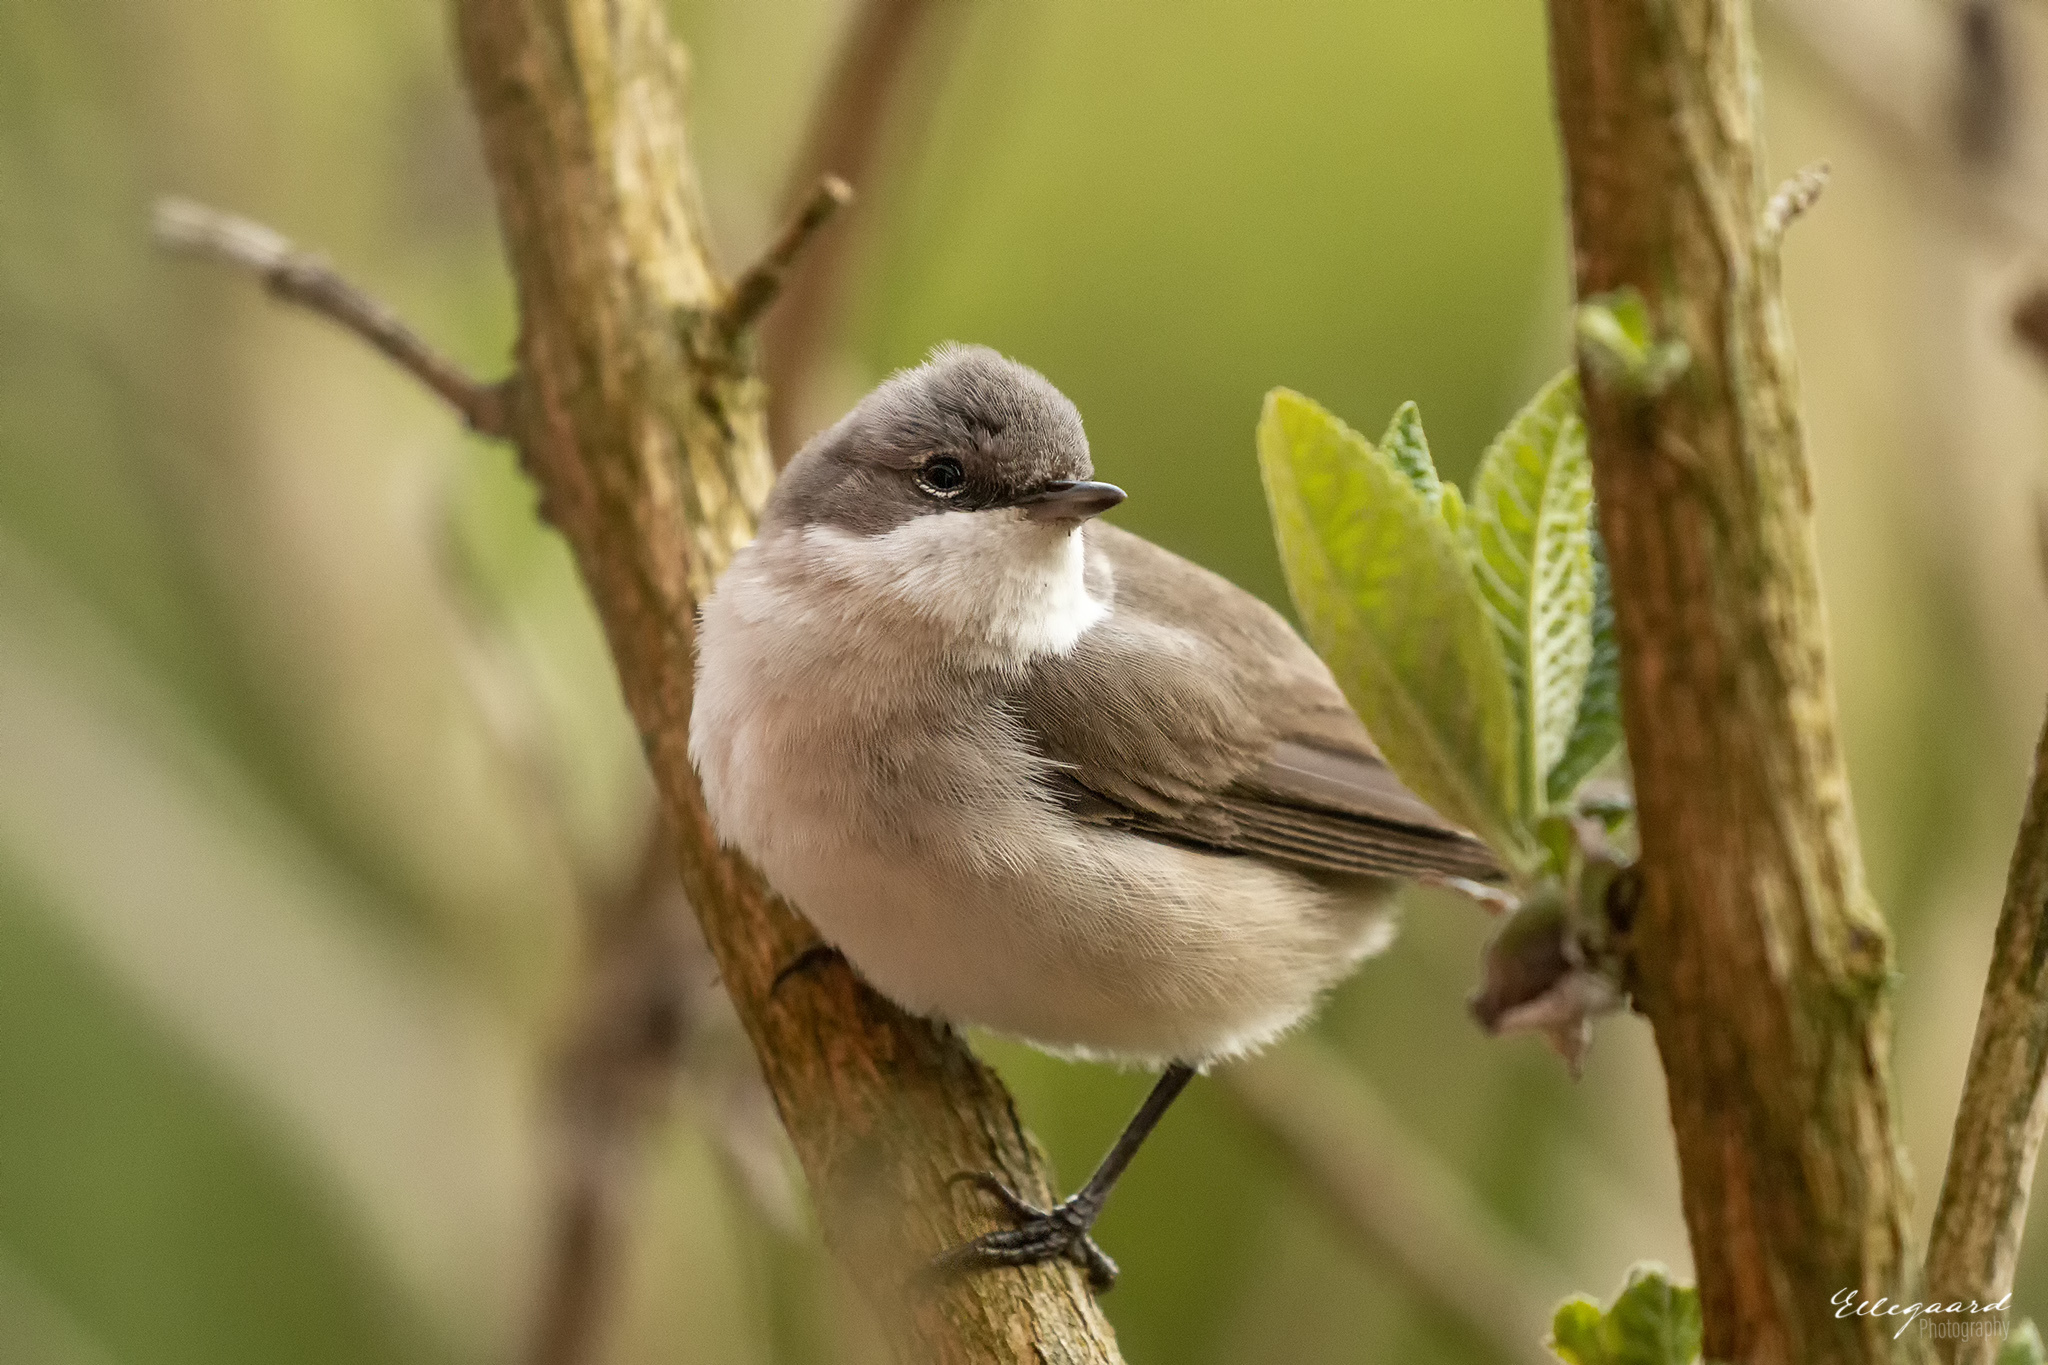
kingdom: Animalia
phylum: Chordata
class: Aves
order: Passeriformes
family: Sylviidae
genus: Sylvia
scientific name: Sylvia curruca
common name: Lesser whitethroat
